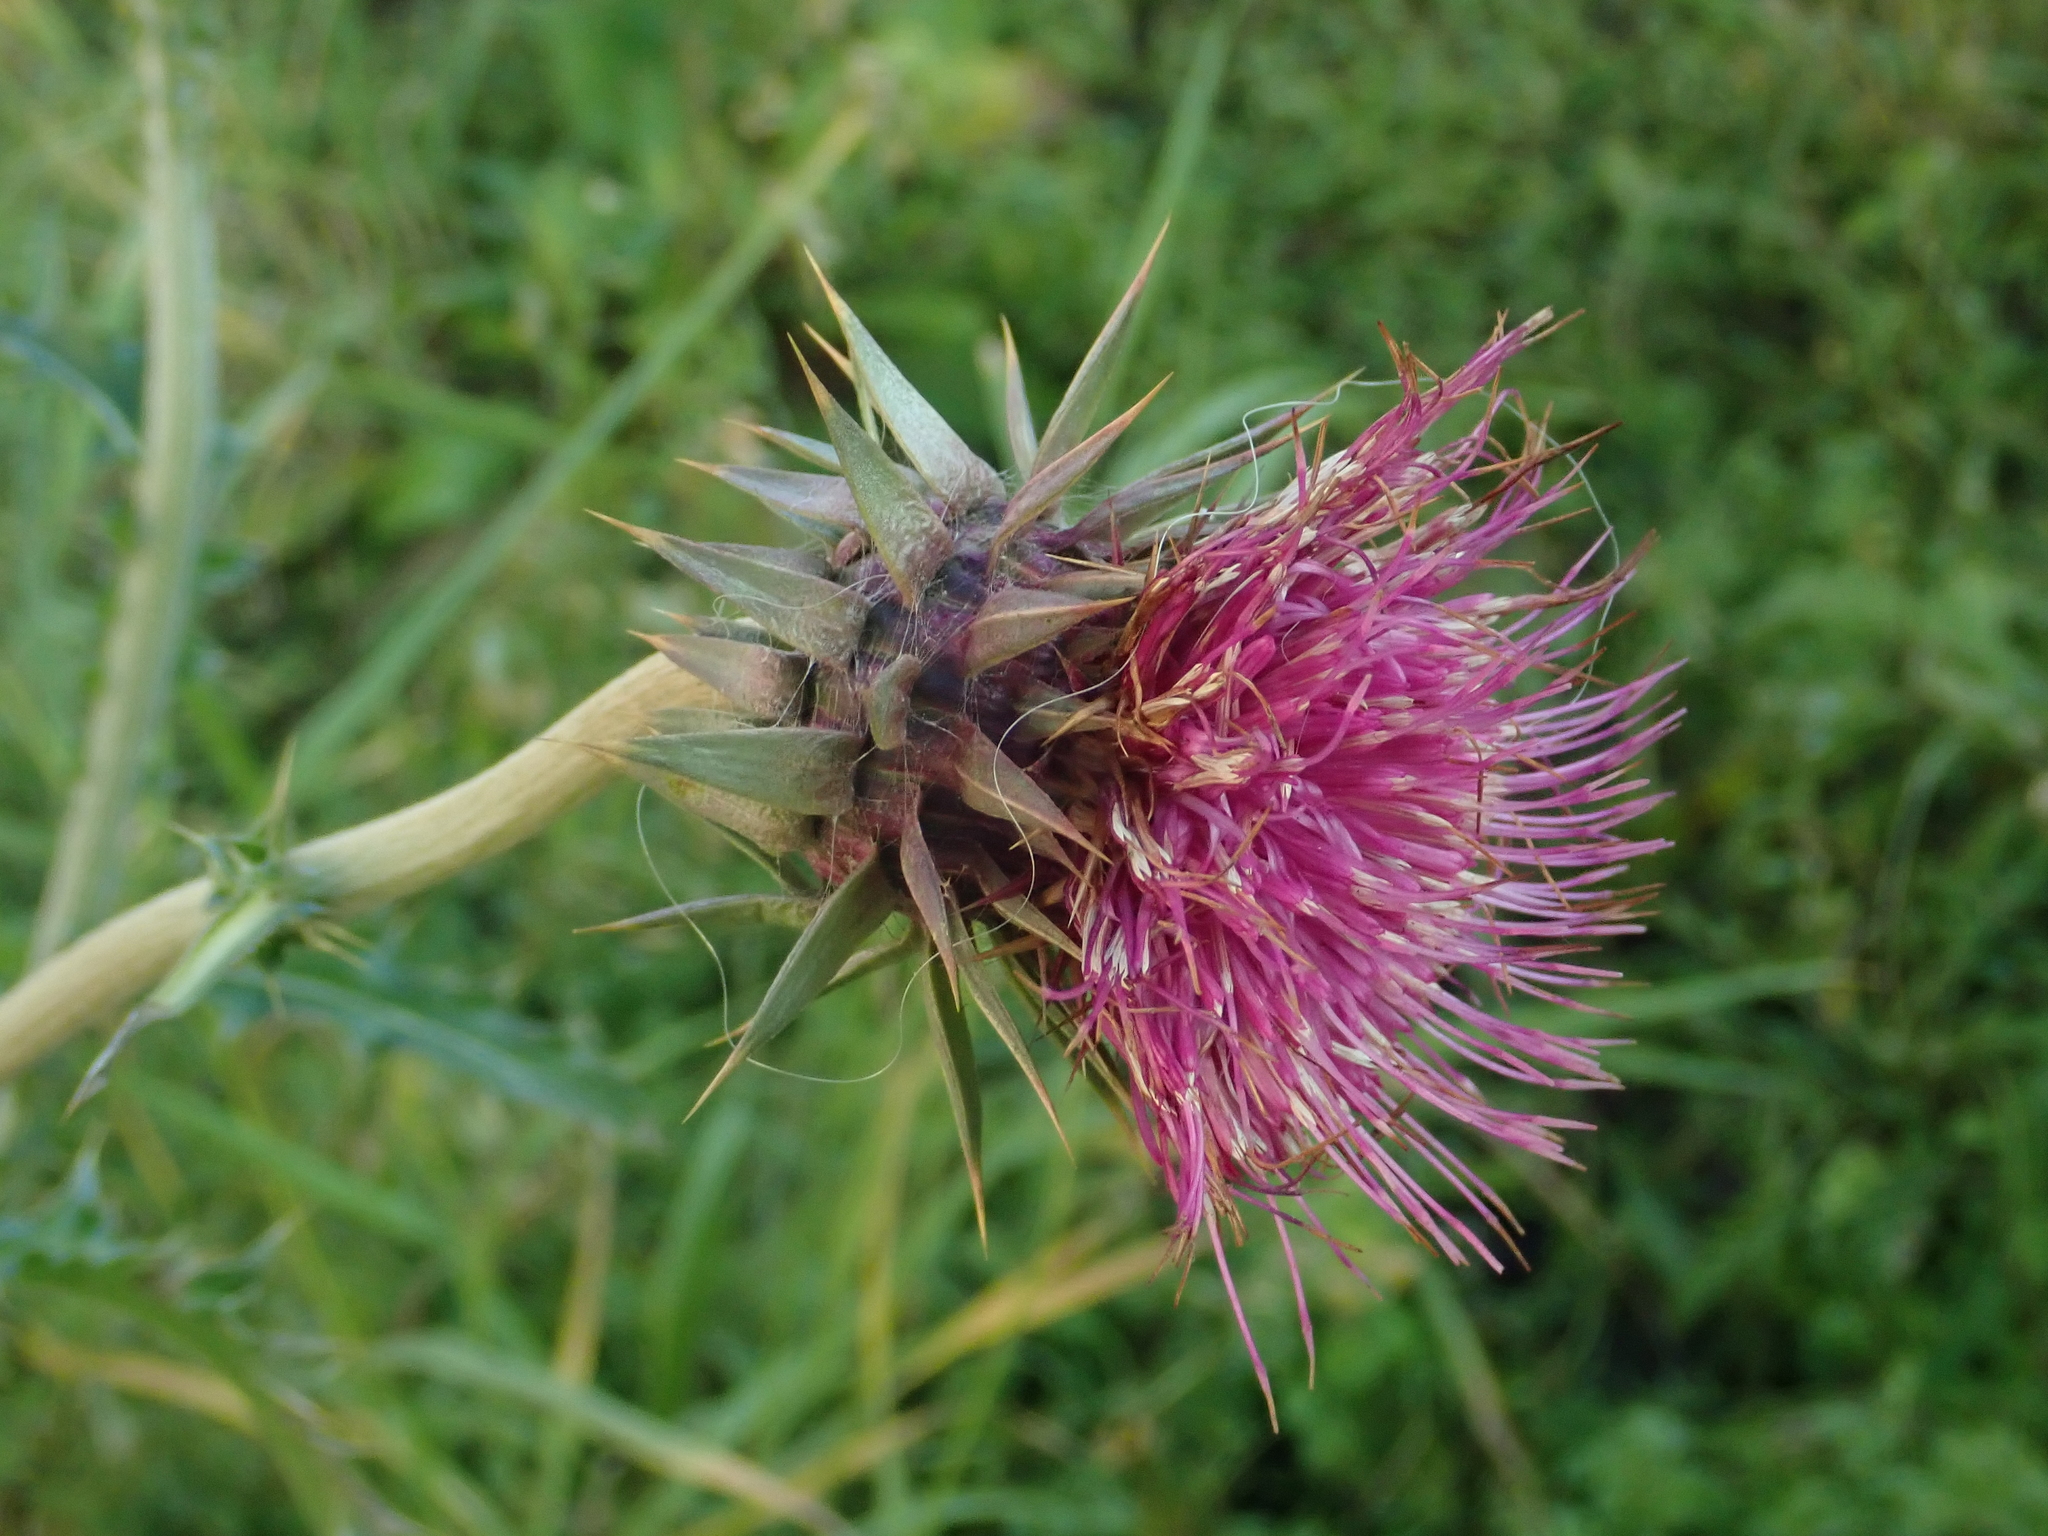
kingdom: Plantae
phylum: Tracheophyta
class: Magnoliopsida
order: Asterales
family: Asteraceae
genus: Carduus
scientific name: Carduus nutans
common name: Musk thistle
